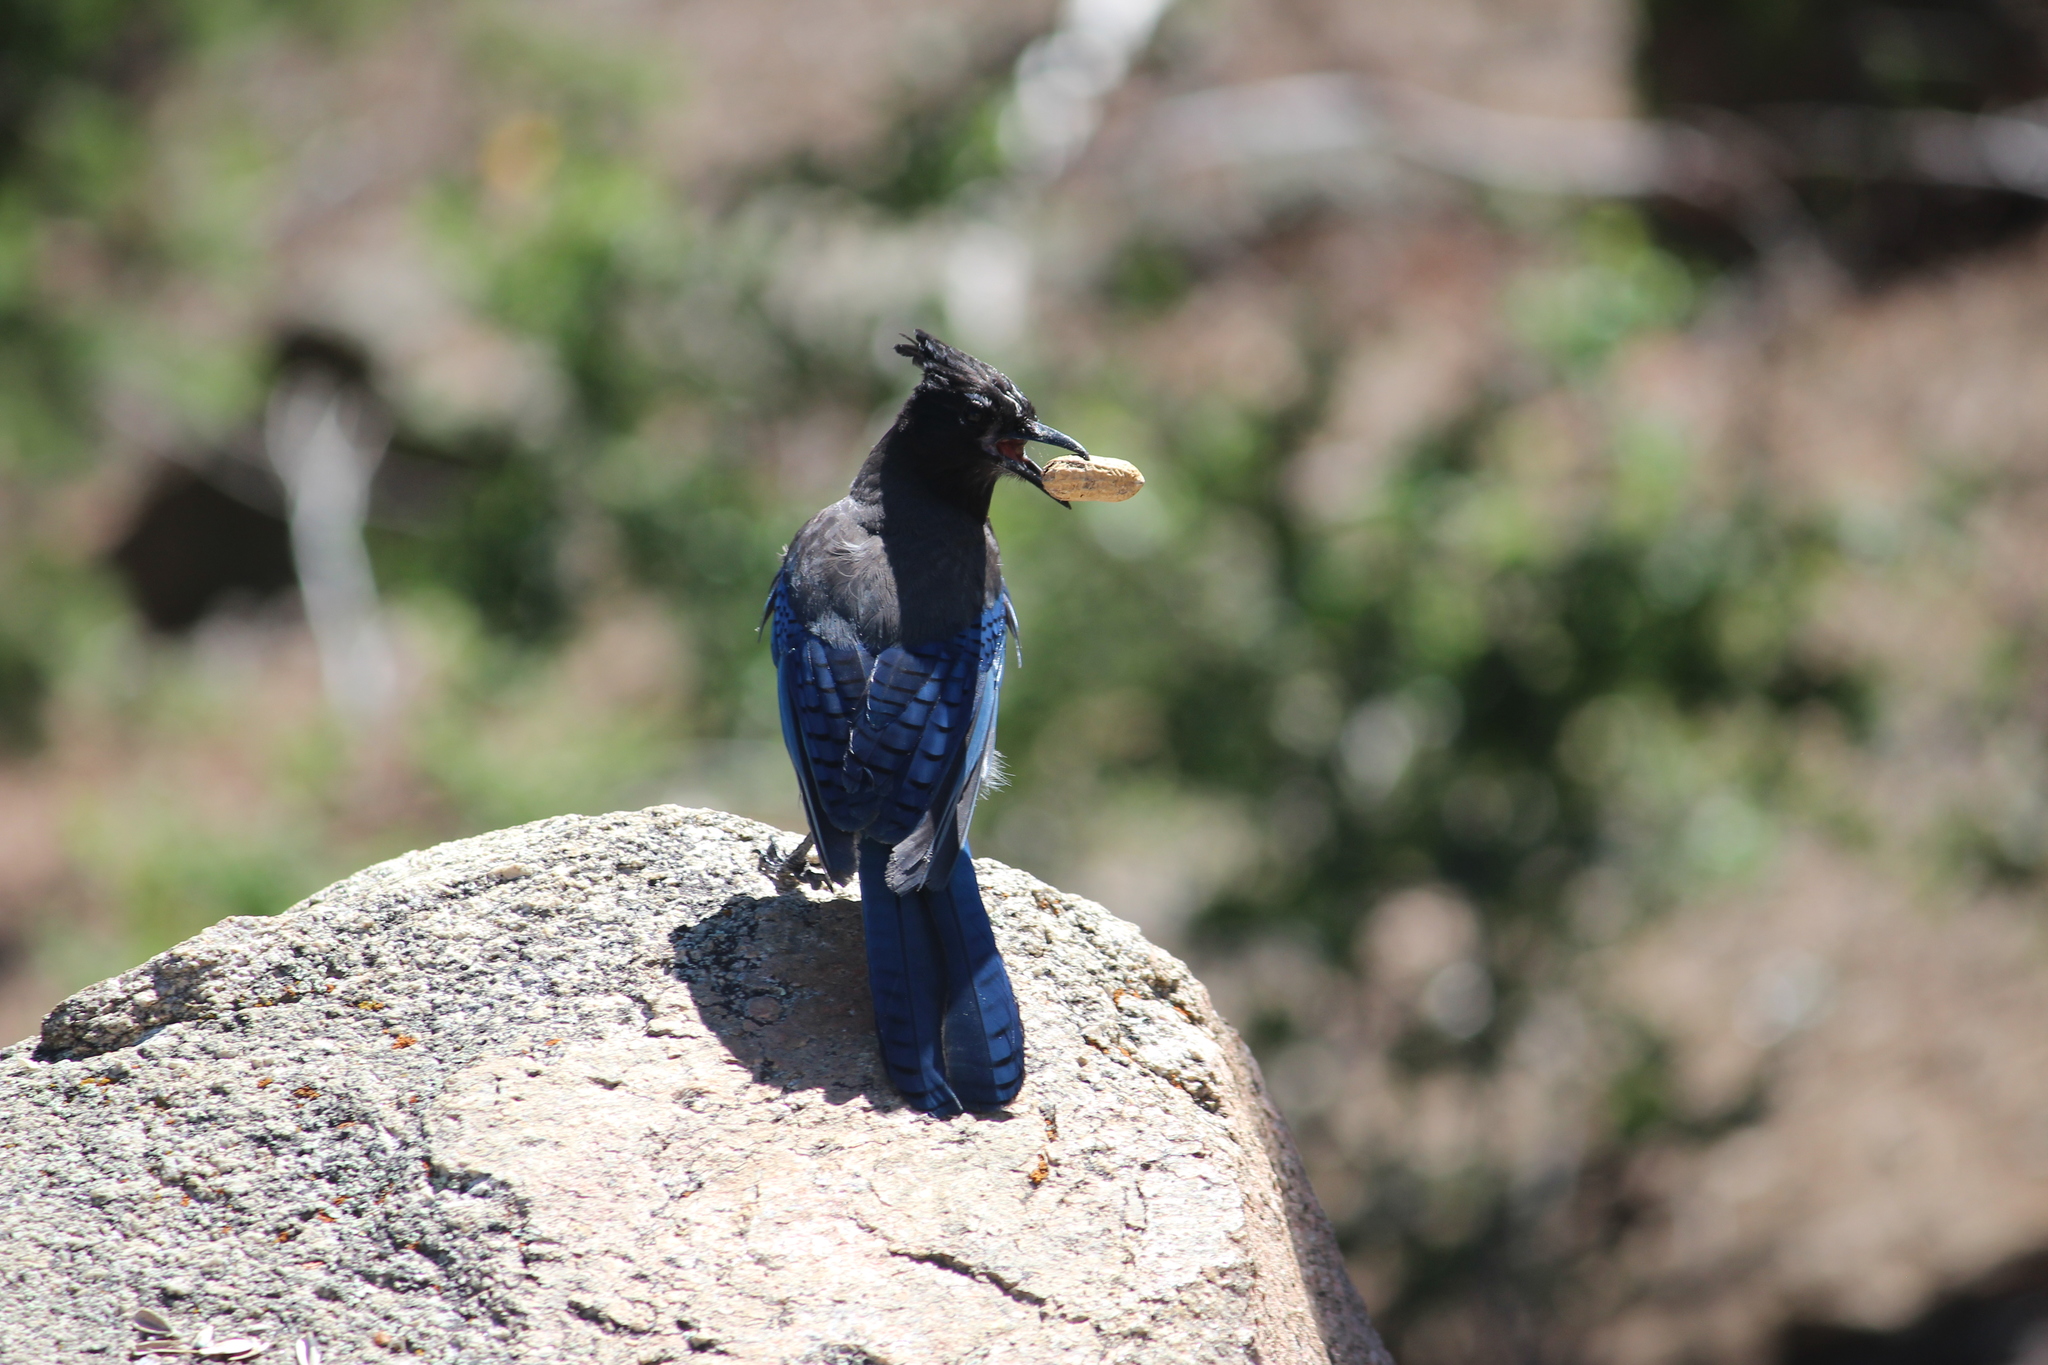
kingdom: Animalia
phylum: Chordata
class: Aves
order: Passeriformes
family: Corvidae
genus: Cyanocitta
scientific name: Cyanocitta stelleri
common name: Steller's jay
